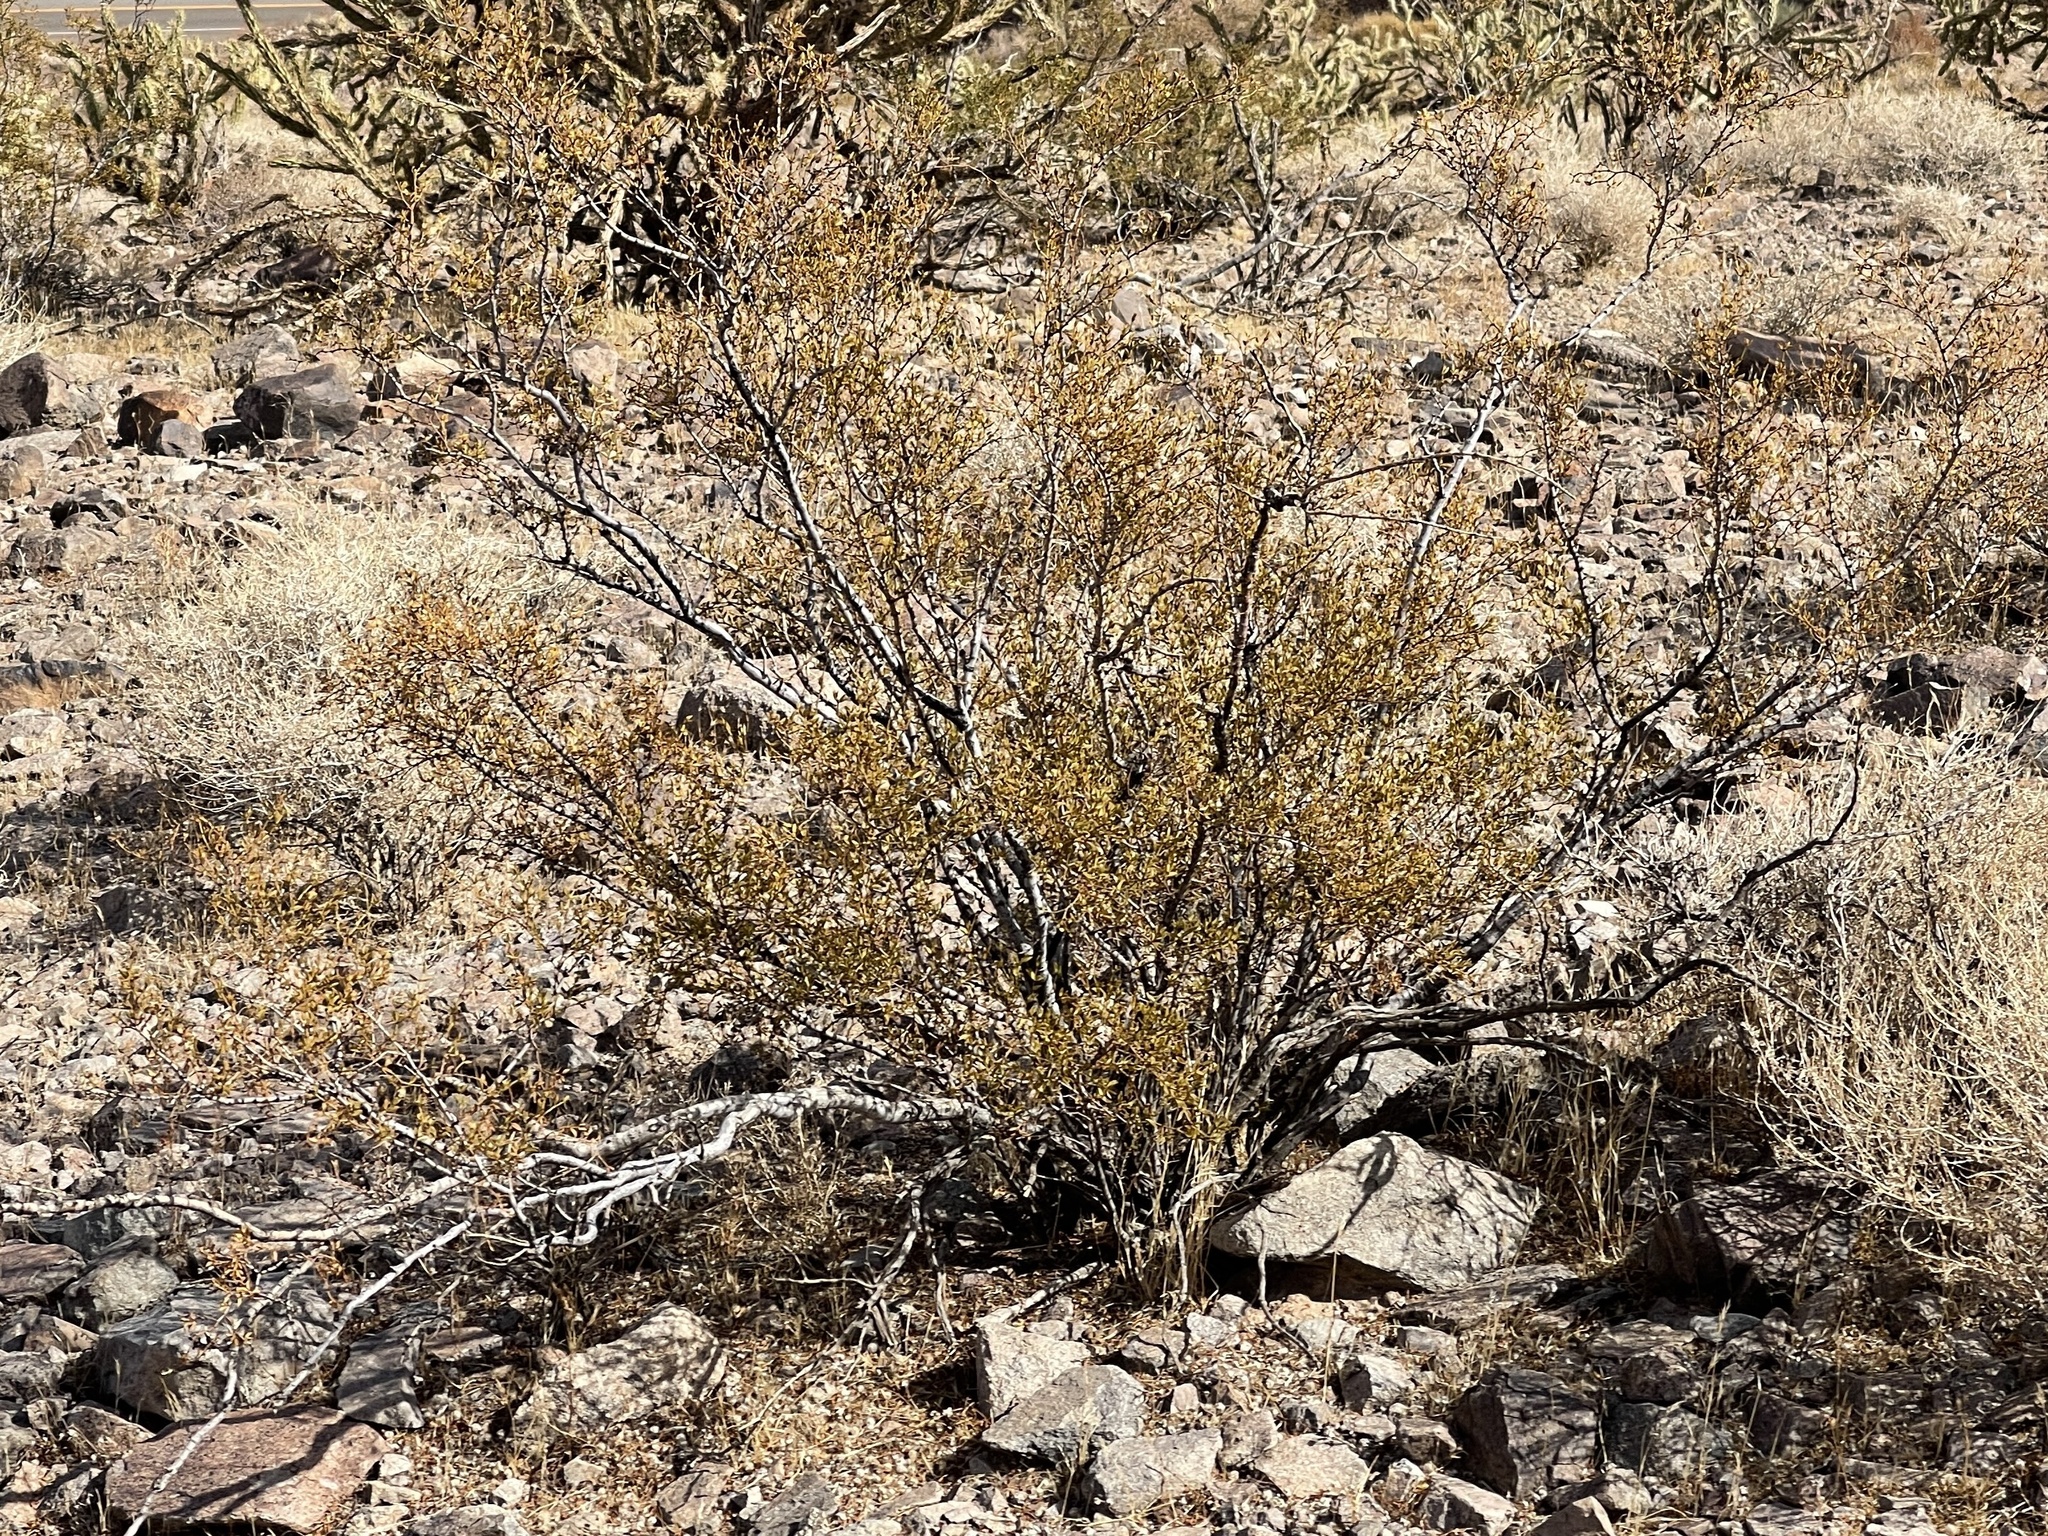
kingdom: Plantae
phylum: Tracheophyta
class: Magnoliopsida
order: Zygophyllales
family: Zygophyllaceae
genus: Larrea
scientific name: Larrea tridentata
